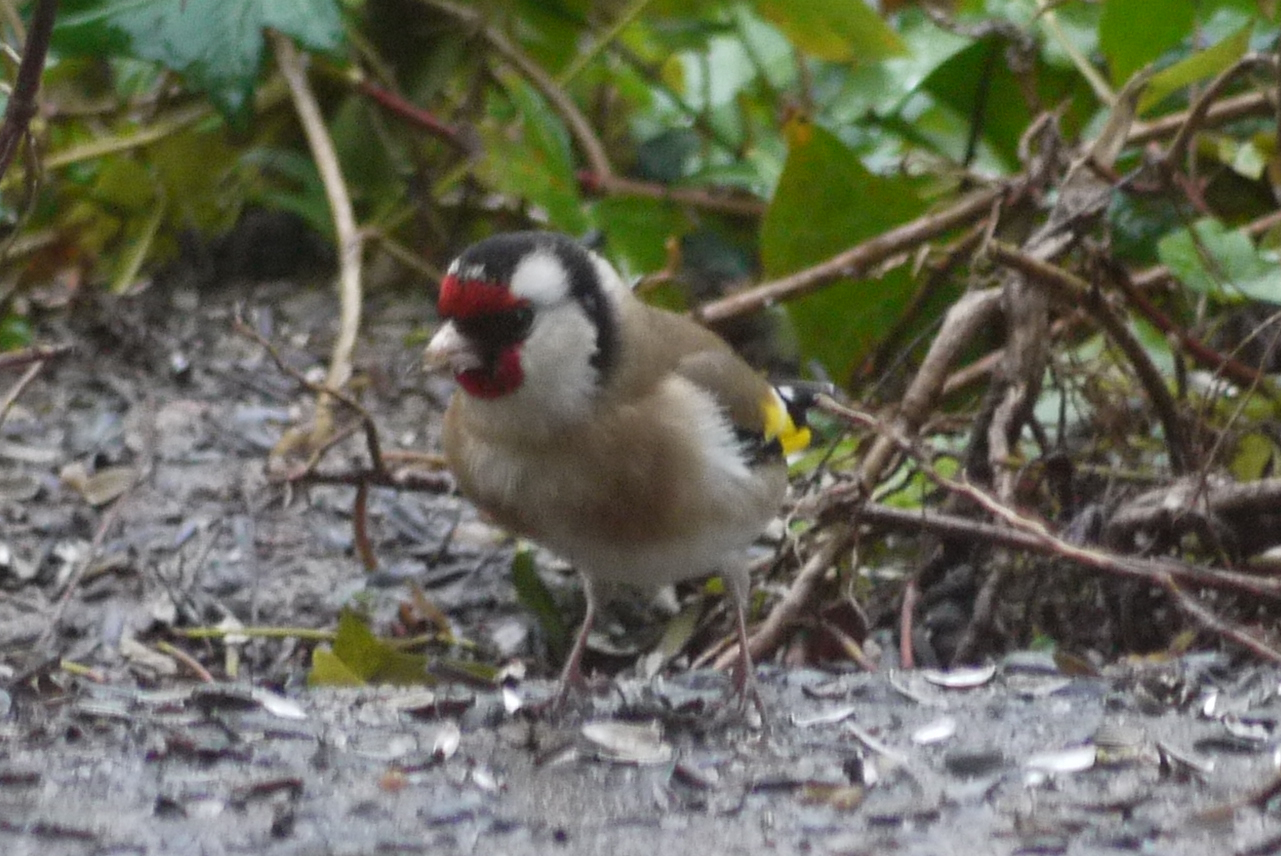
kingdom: Animalia
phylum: Chordata
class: Aves
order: Passeriformes
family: Fringillidae
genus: Carduelis
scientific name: Carduelis carduelis
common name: European goldfinch
